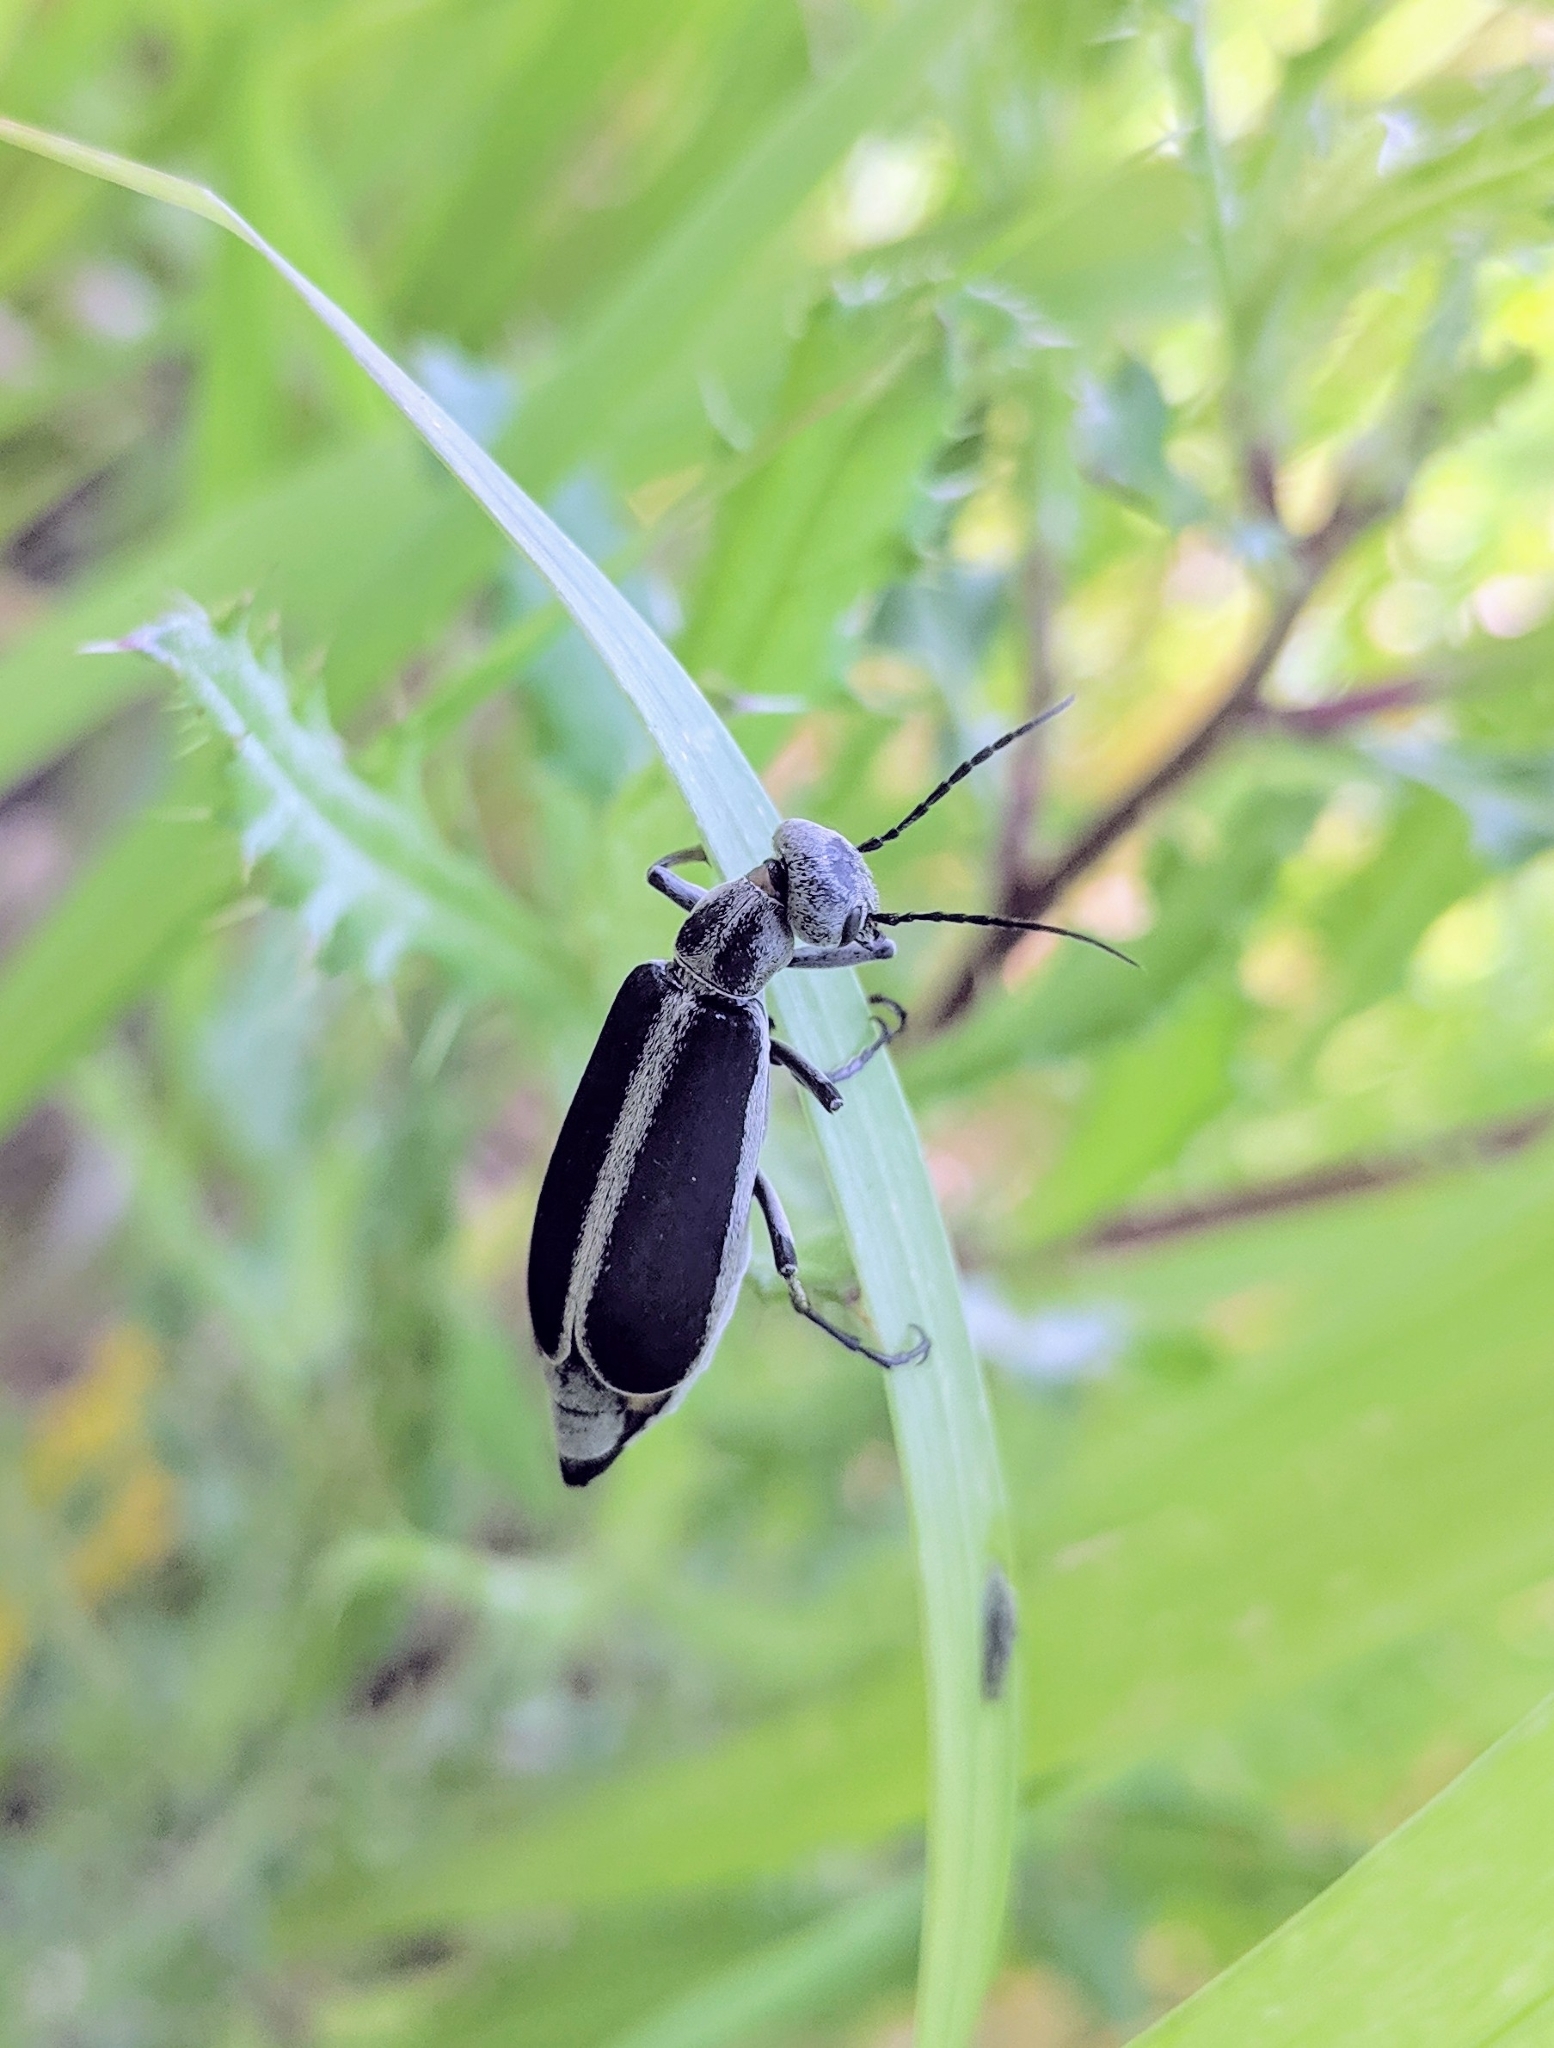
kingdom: Animalia
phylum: Arthropoda
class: Insecta
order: Coleoptera
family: Meloidae
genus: Epicauta
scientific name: Epicauta funebris
